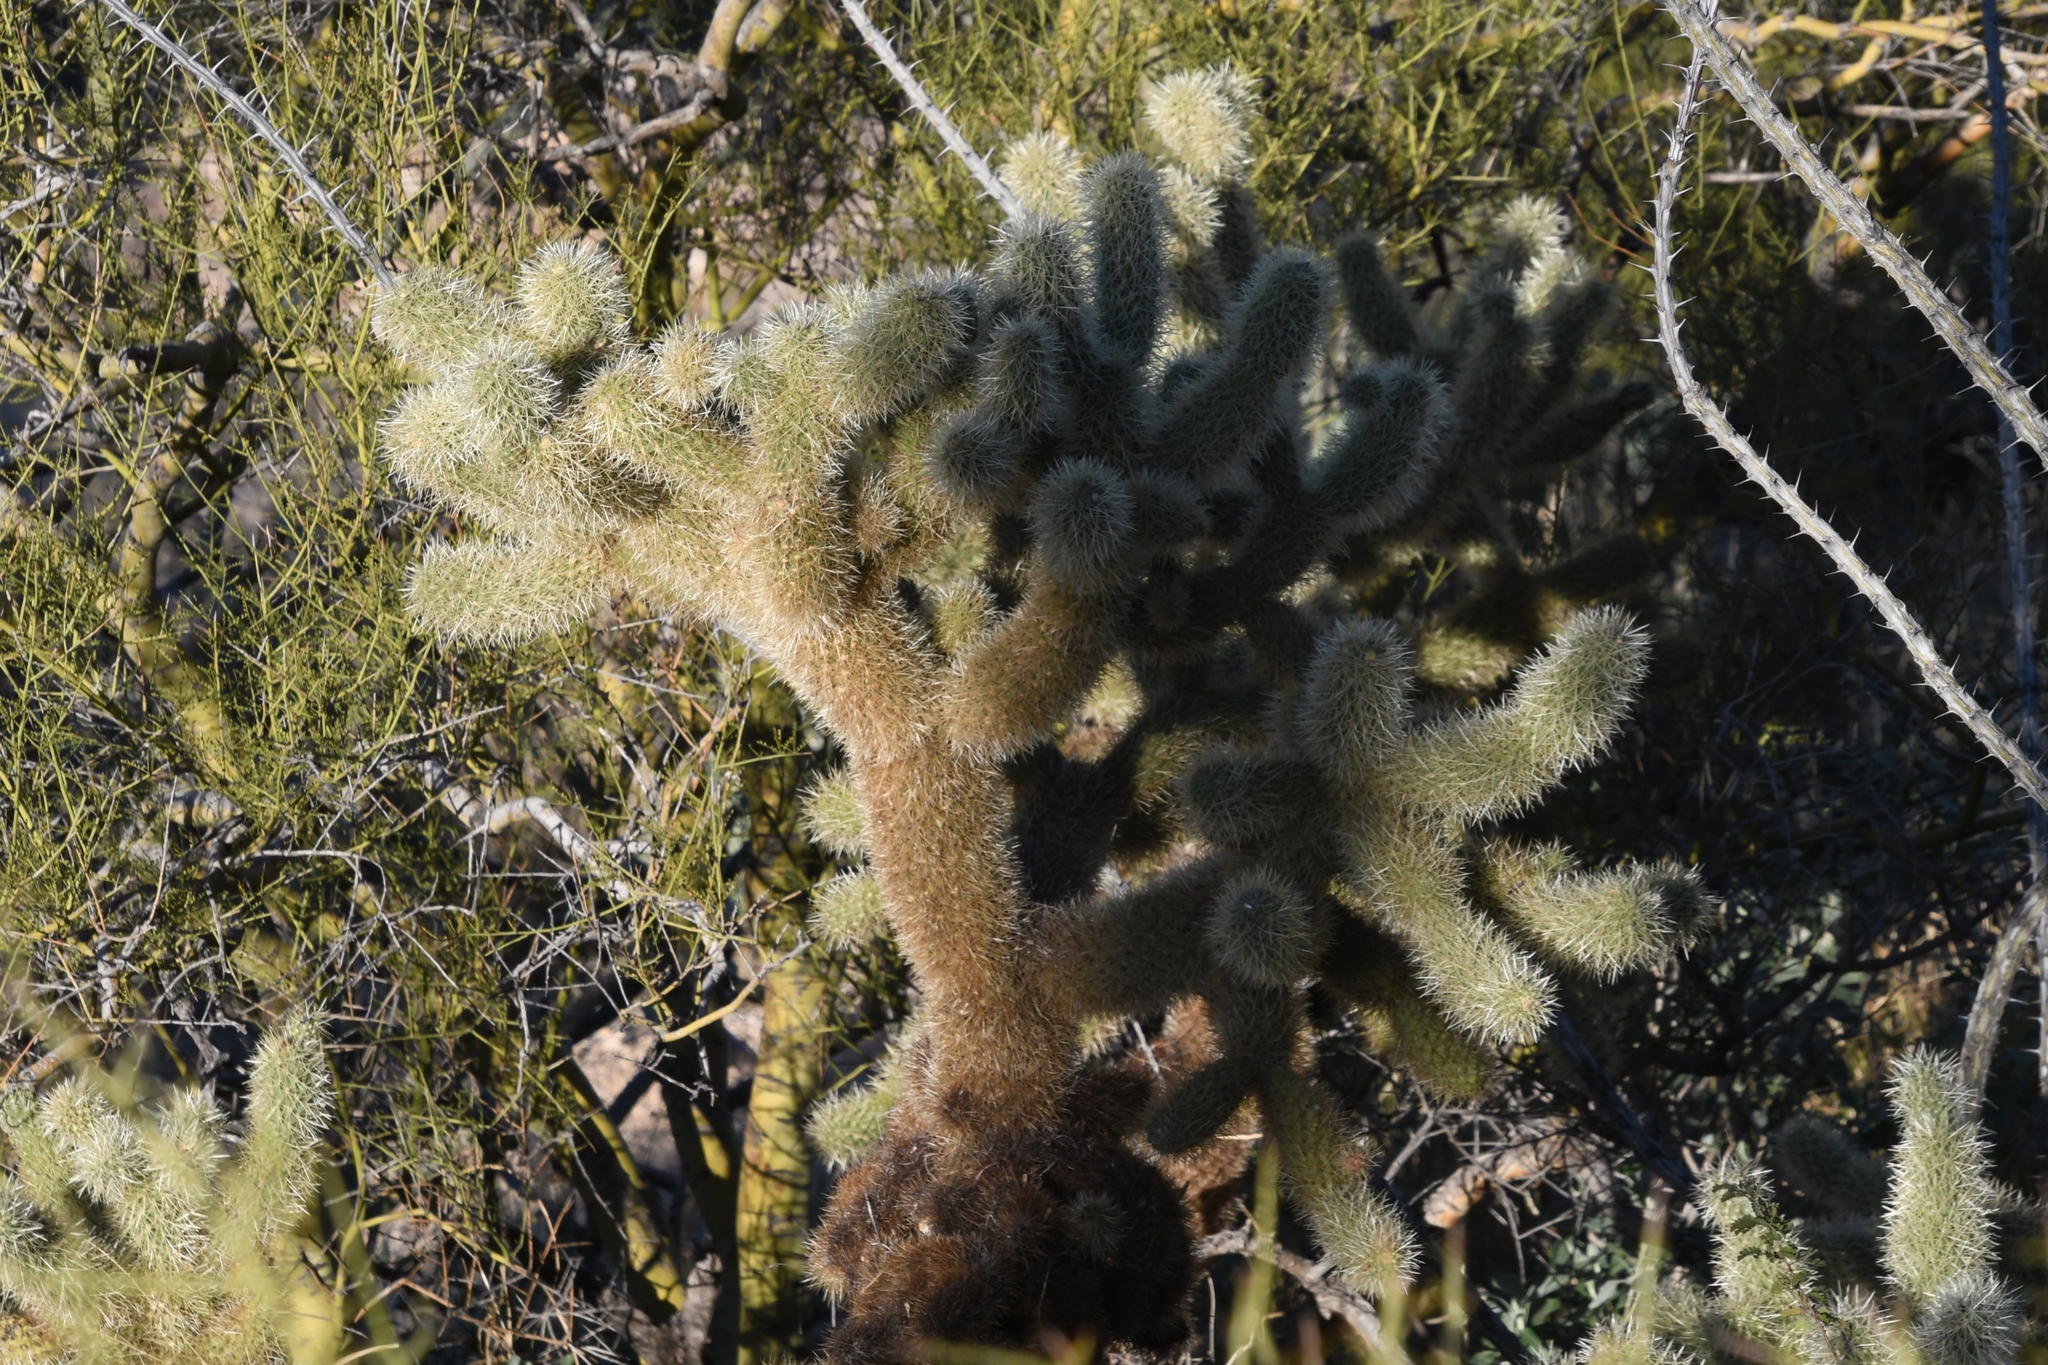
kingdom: Plantae
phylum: Tracheophyta
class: Magnoliopsida
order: Caryophyllales
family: Cactaceae
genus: Cylindropuntia
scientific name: Cylindropuntia fosbergii
